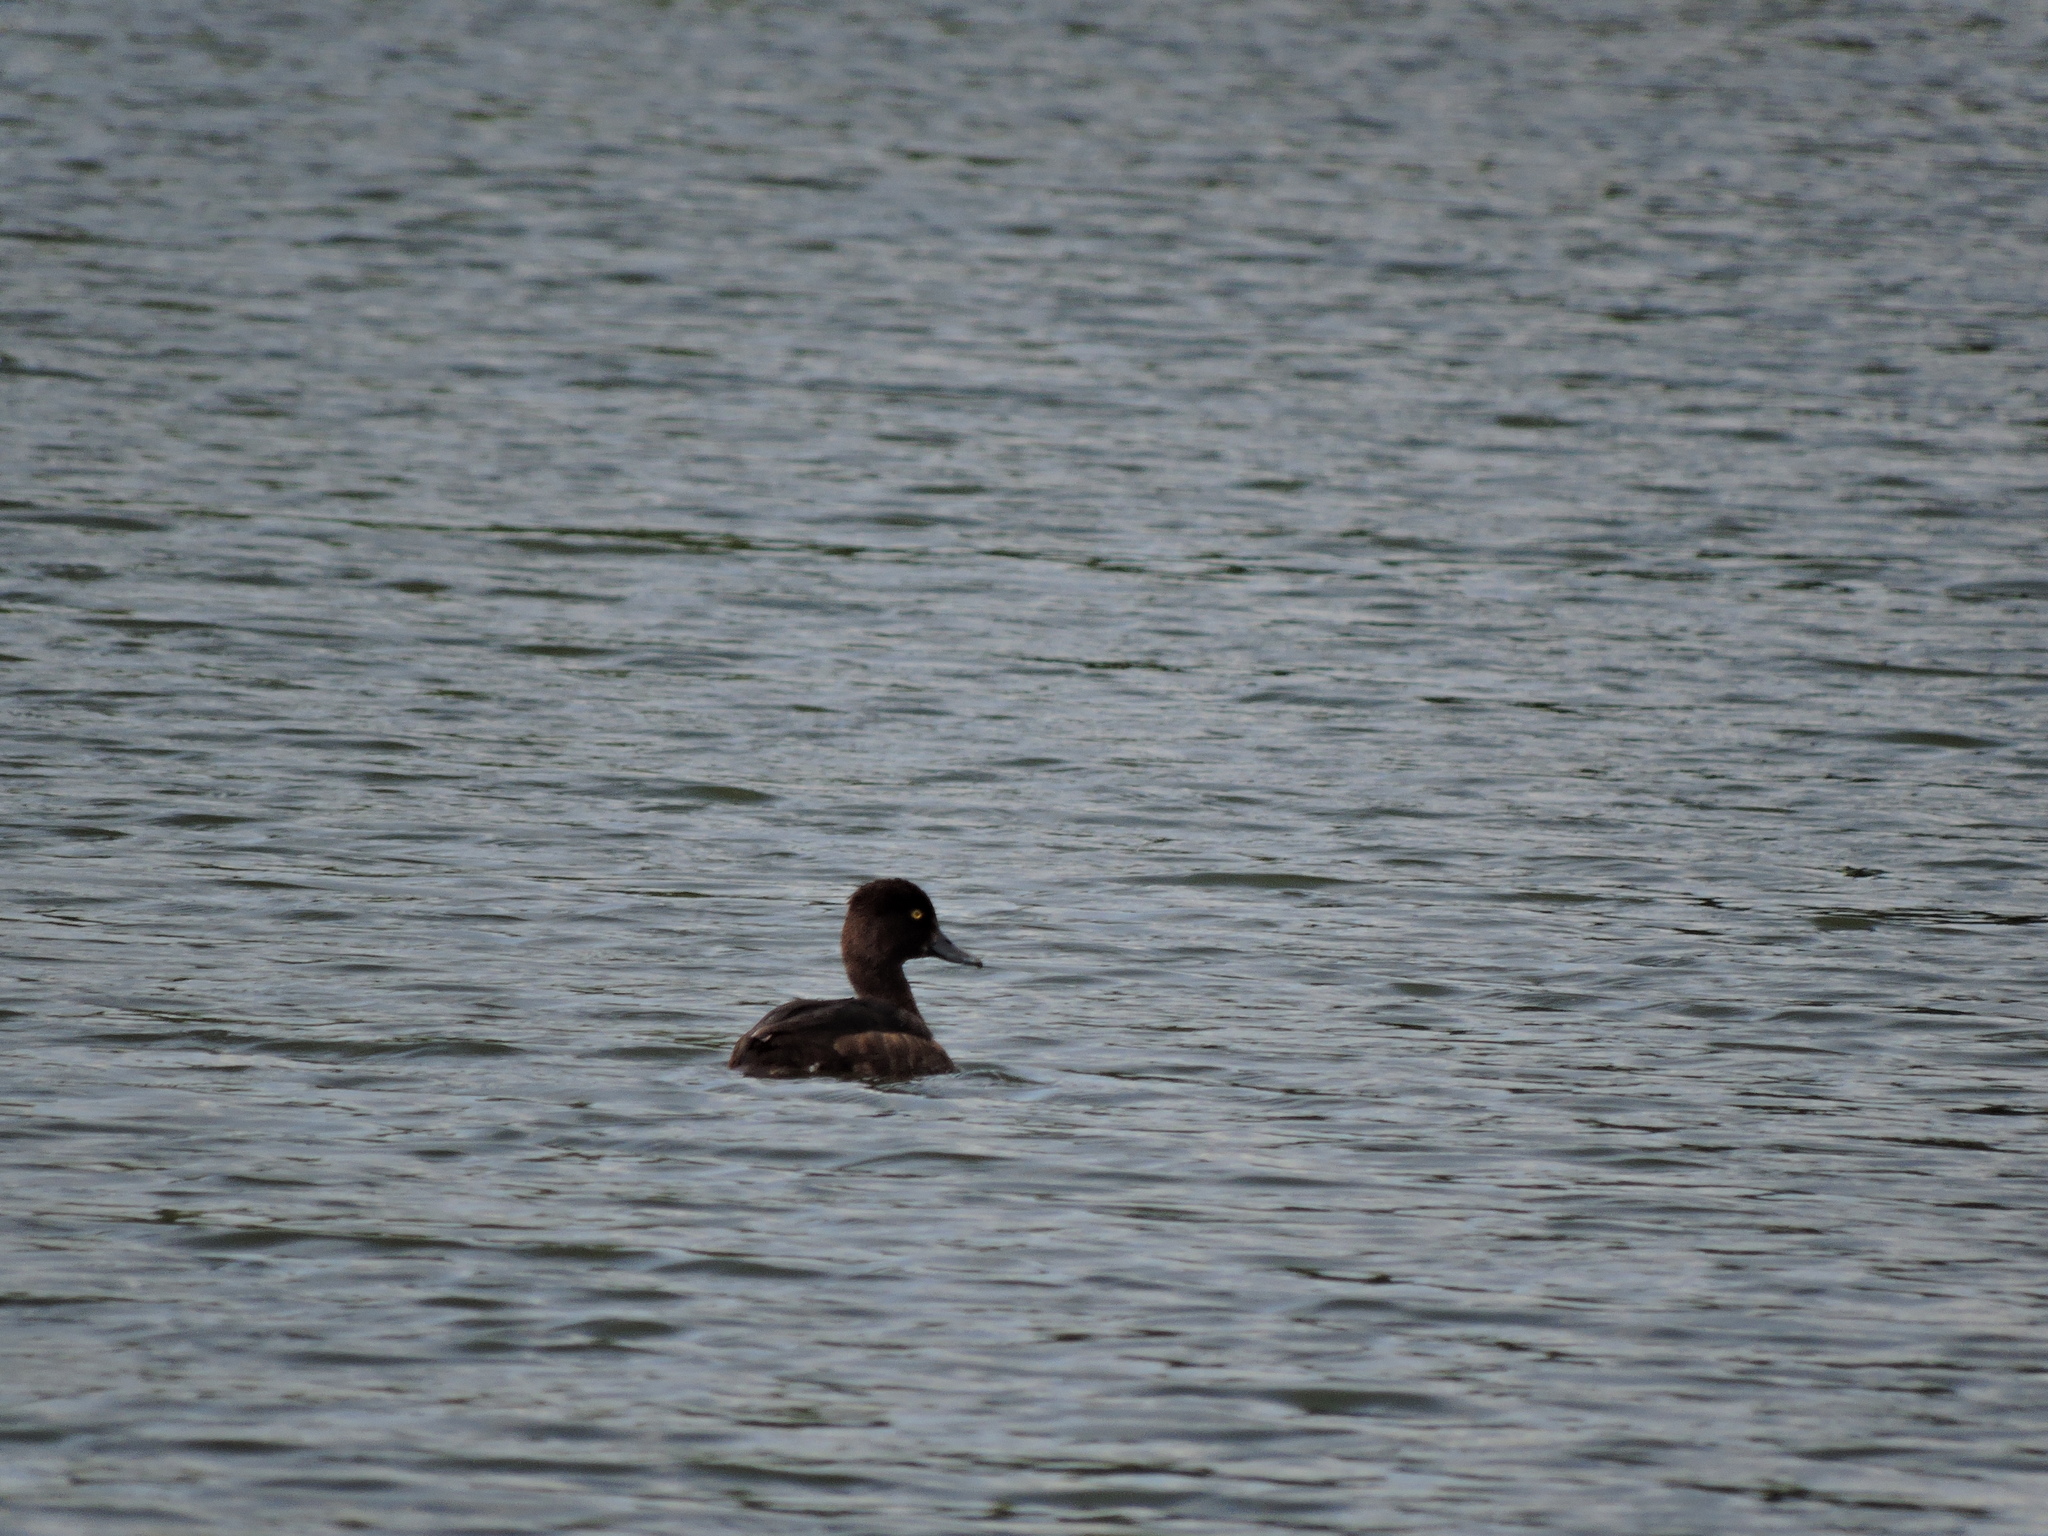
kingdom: Animalia
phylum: Chordata
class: Aves
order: Anseriformes
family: Anatidae
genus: Aythya
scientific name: Aythya fuligula
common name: Tufted duck
